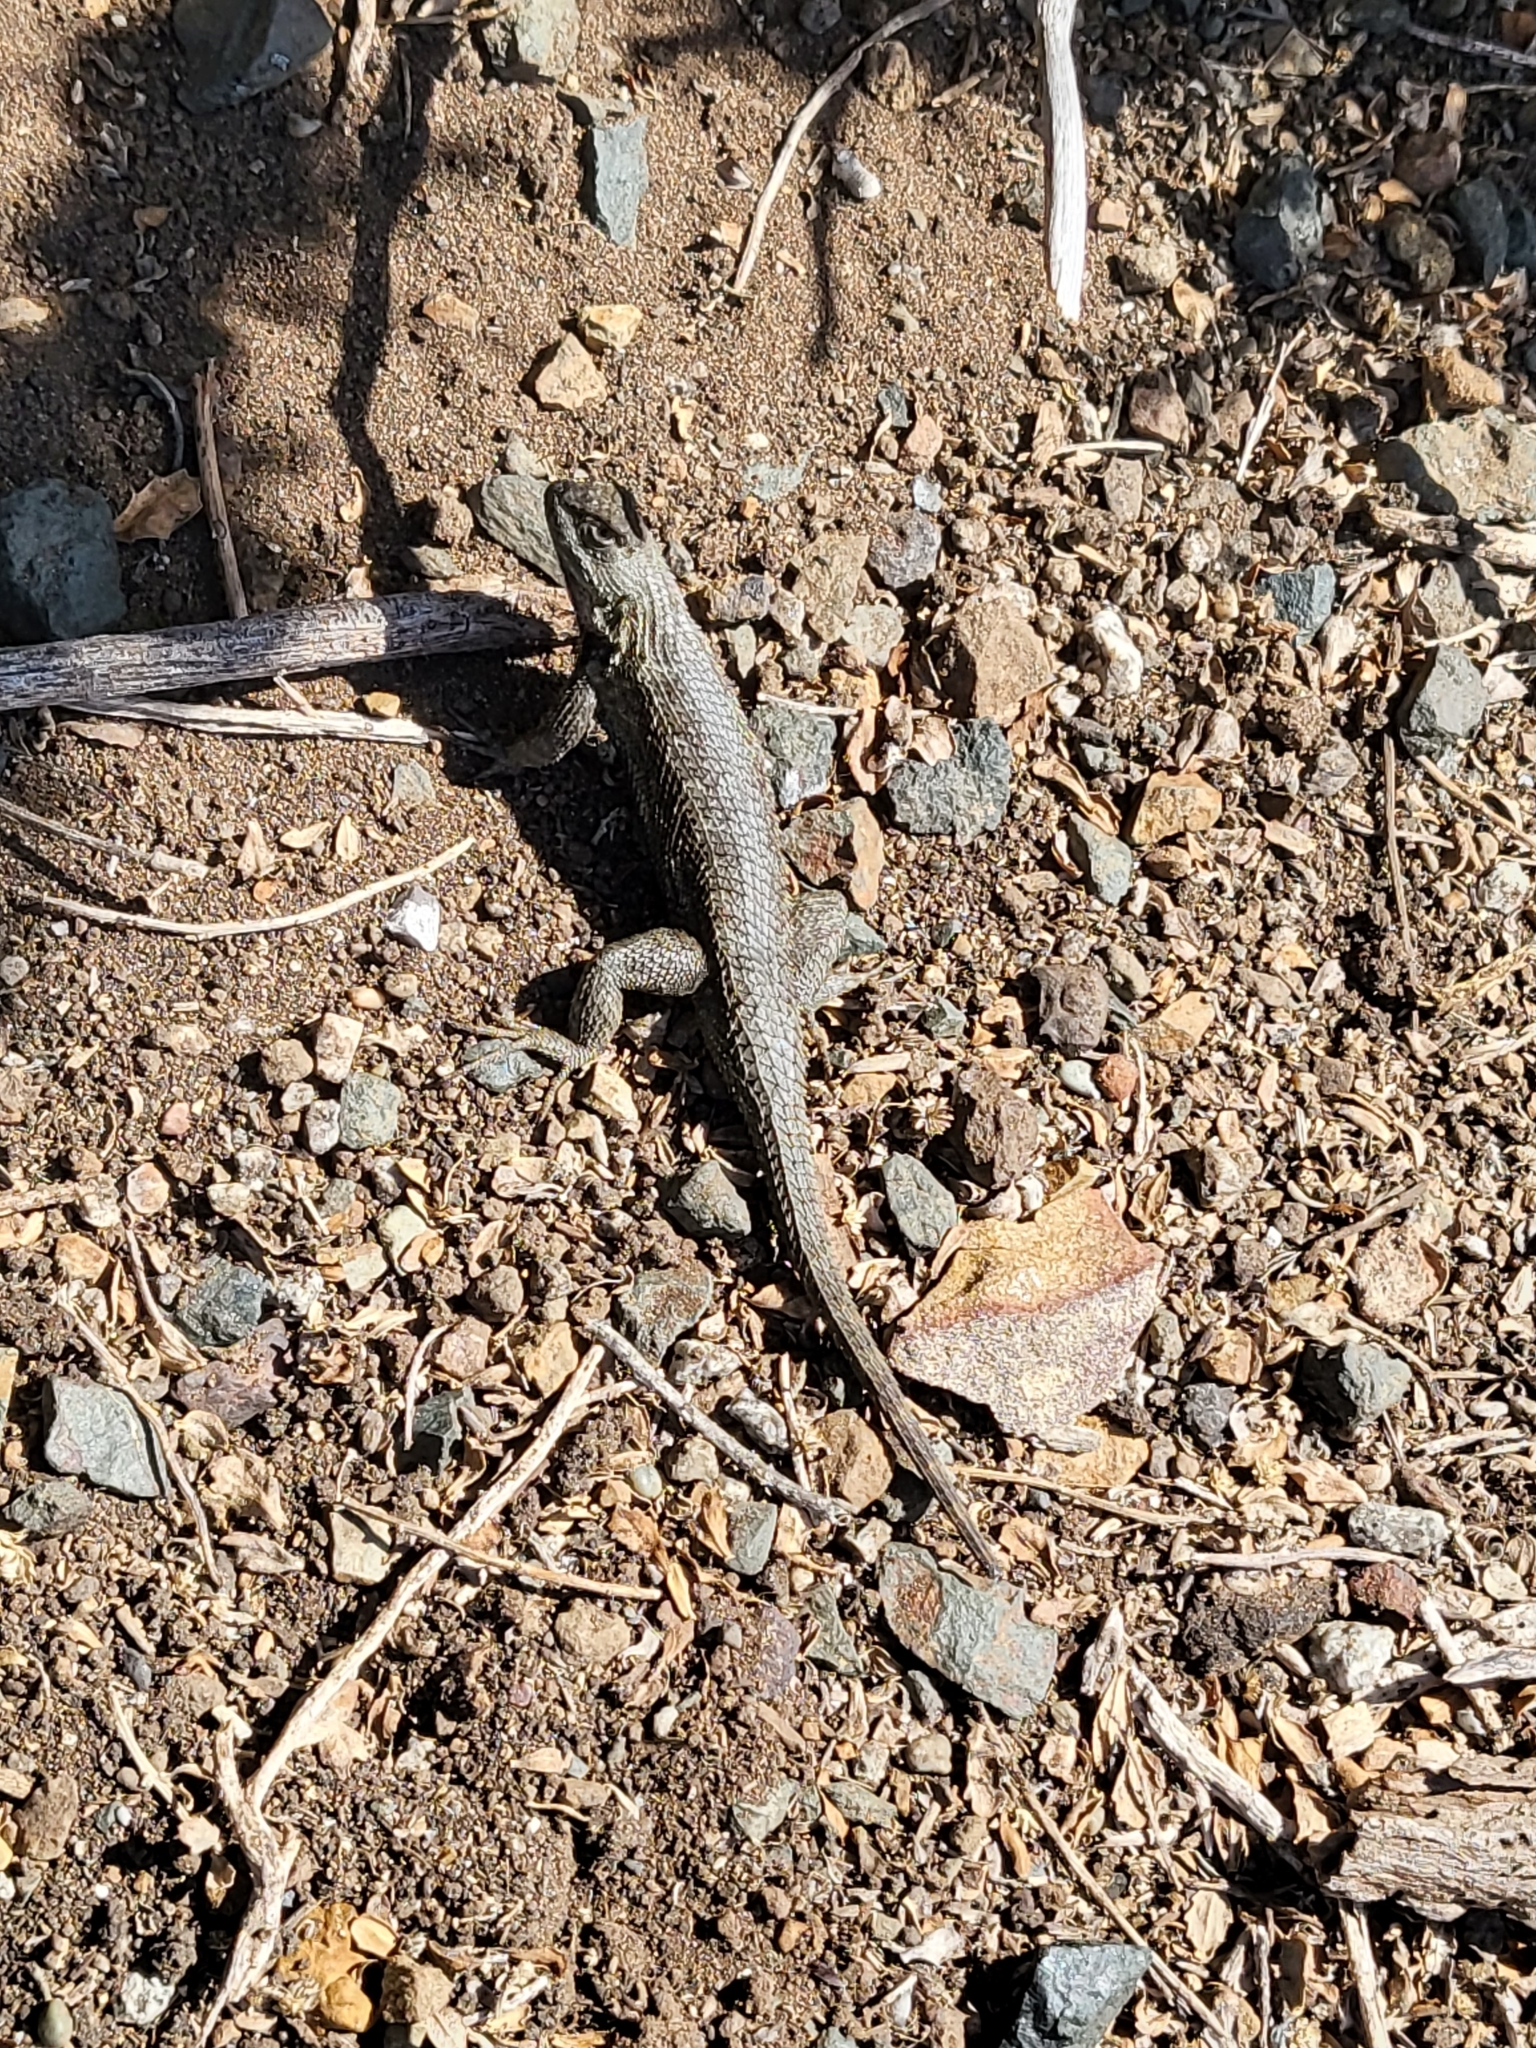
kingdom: Animalia
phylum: Chordata
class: Squamata
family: Phrynosomatidae
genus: Sceloporus
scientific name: Sceloporus occidentalis
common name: Western fence lizard
